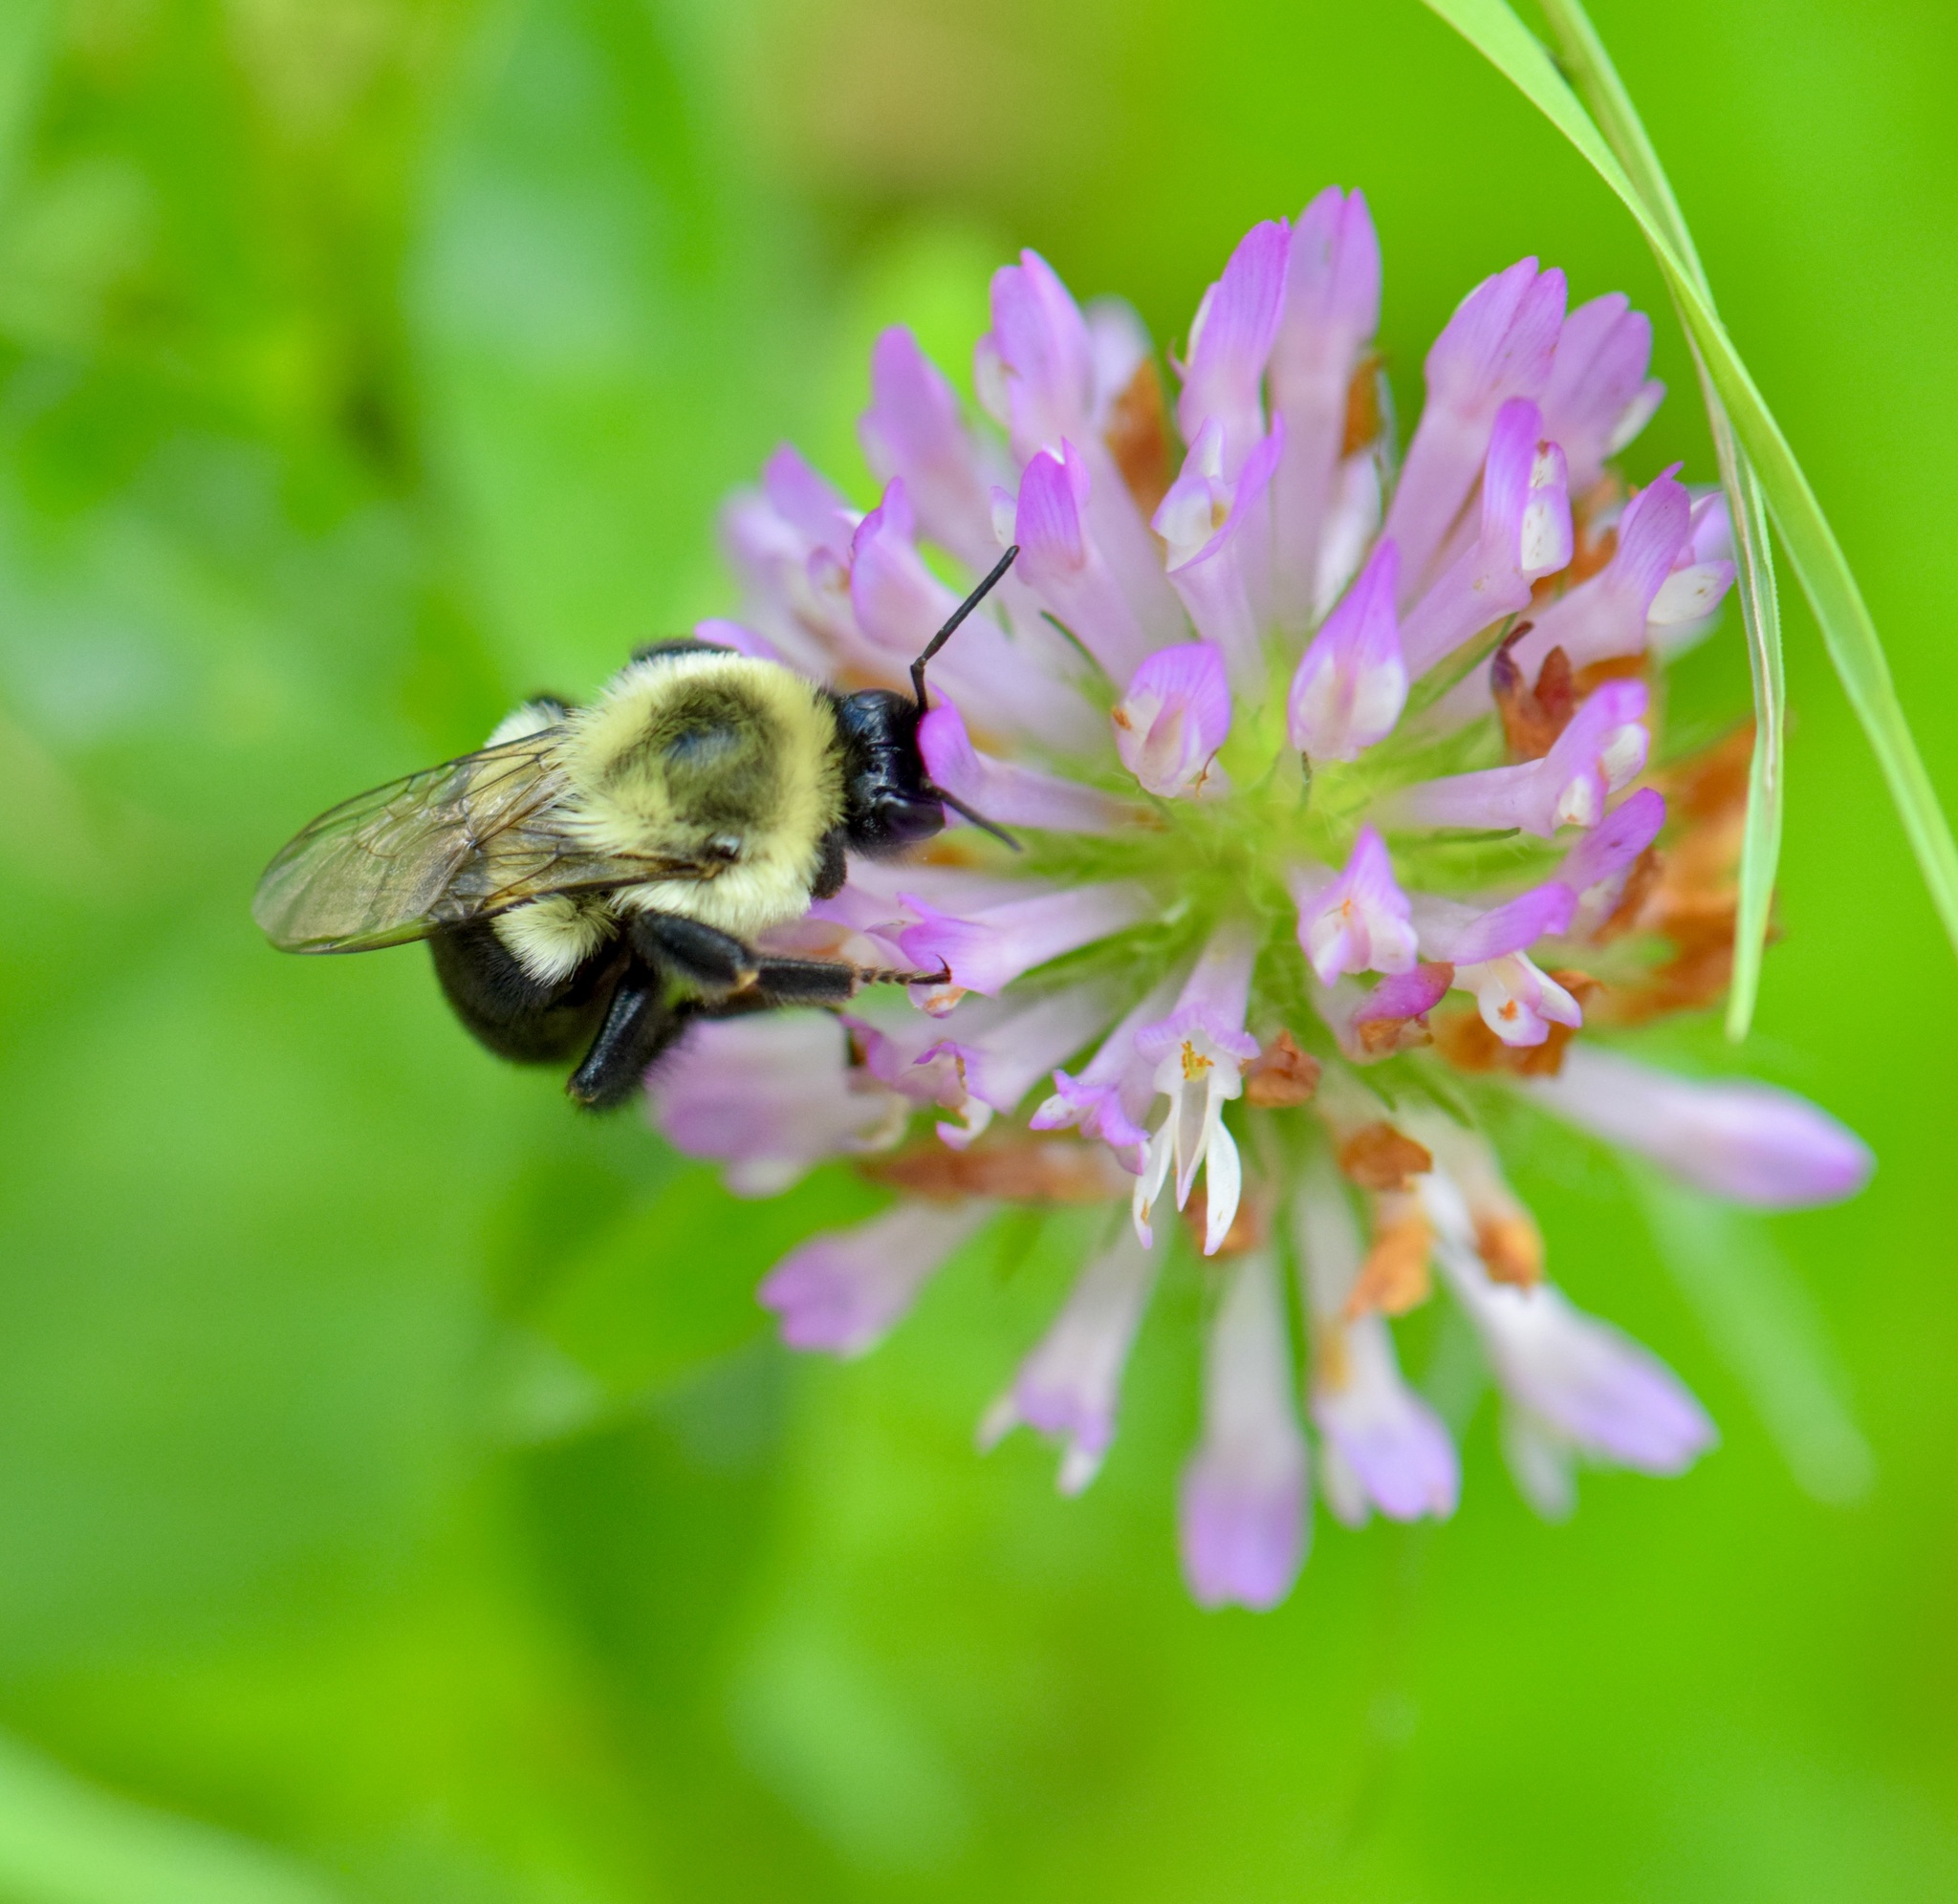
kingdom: Animalia
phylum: Arthropoda
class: Insecta
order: Hymenoptera
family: Apidae
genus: Bombus
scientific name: Bombus impatiens
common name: Common eastern bumble bee
